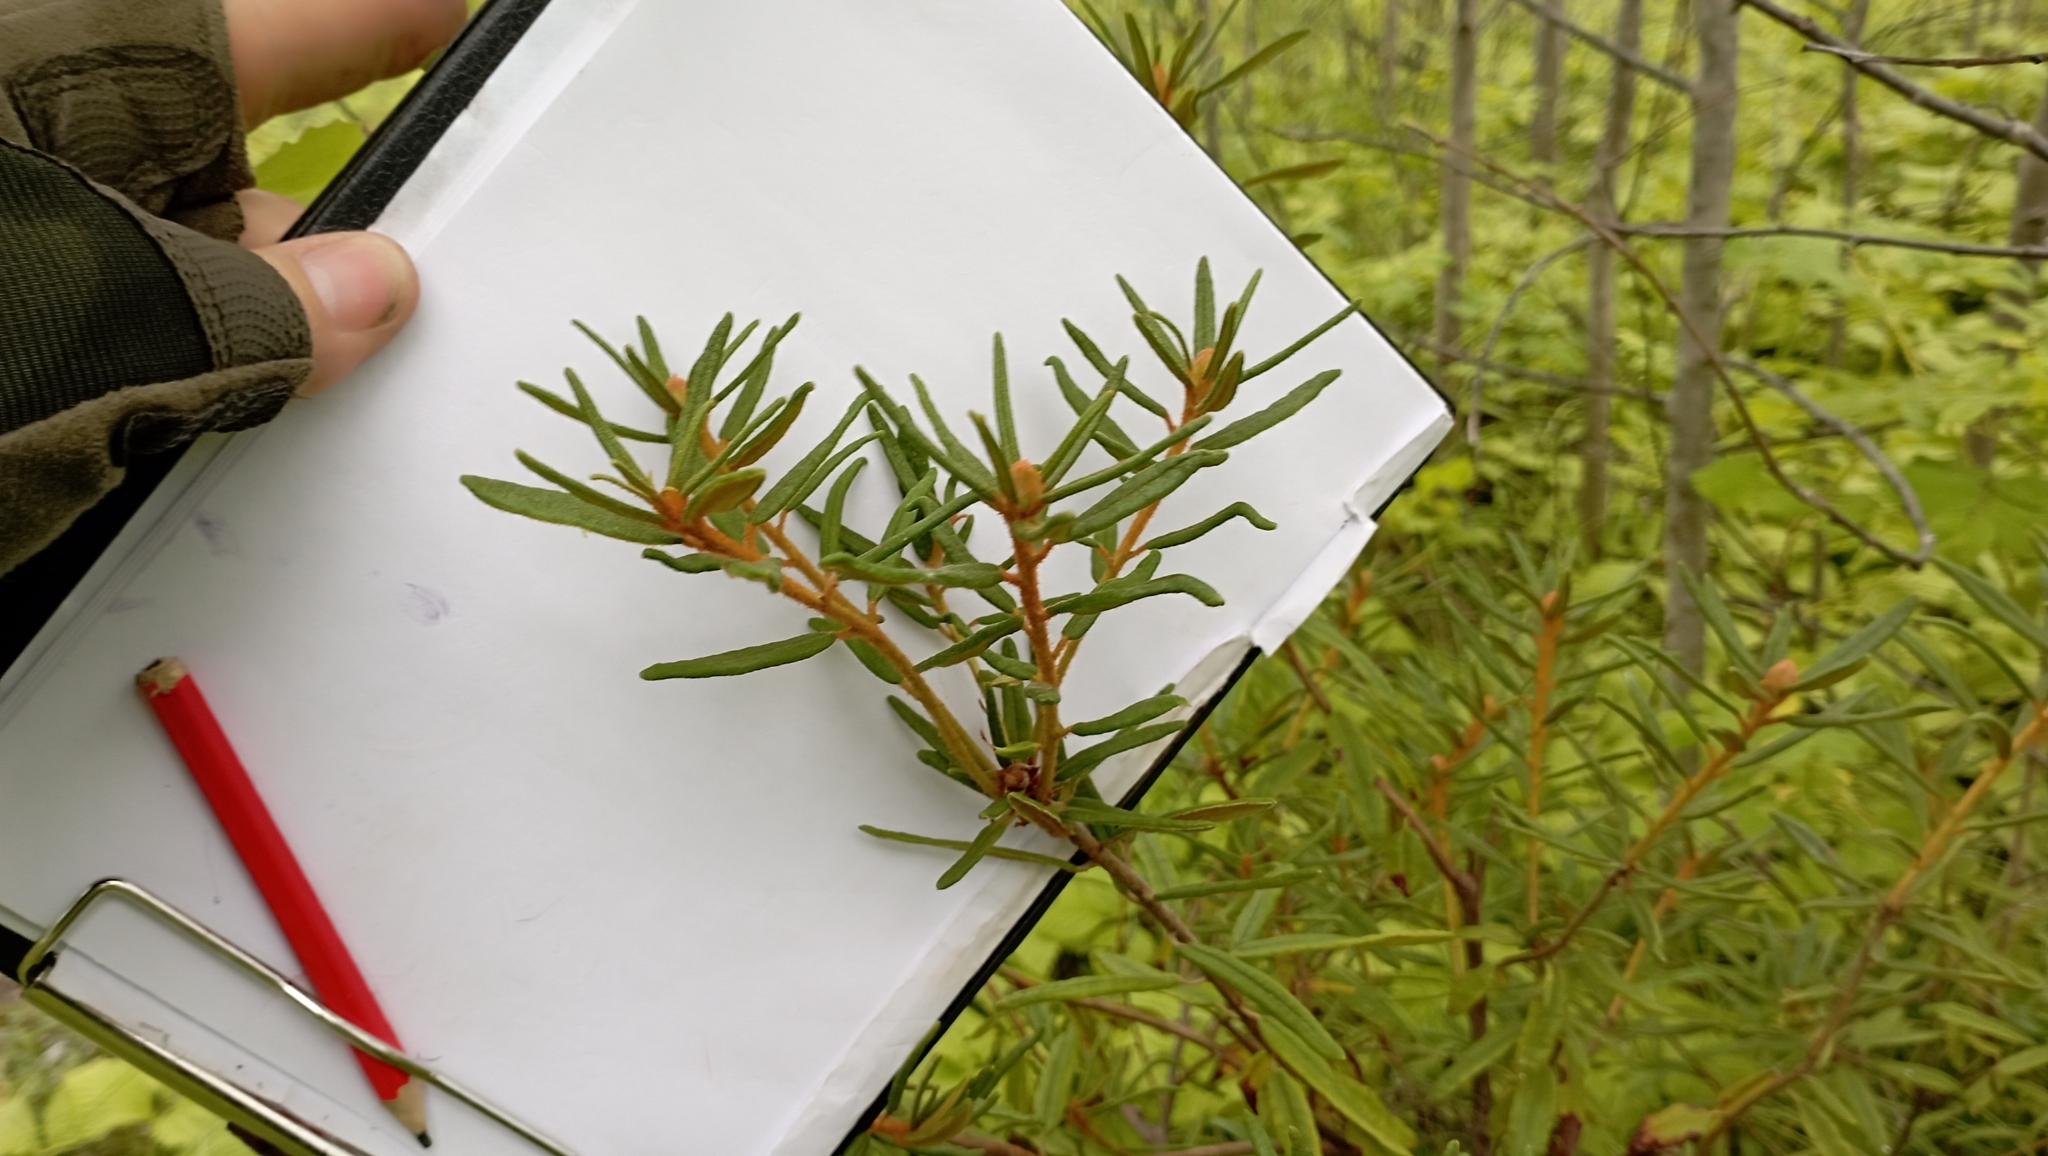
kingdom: Plantae
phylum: Tracheophyta
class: Magnoliopsida
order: Ericales
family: Ericaceae
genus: Rhododendron
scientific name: Rhododendron tomentosum
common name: Marsh labrador tea
